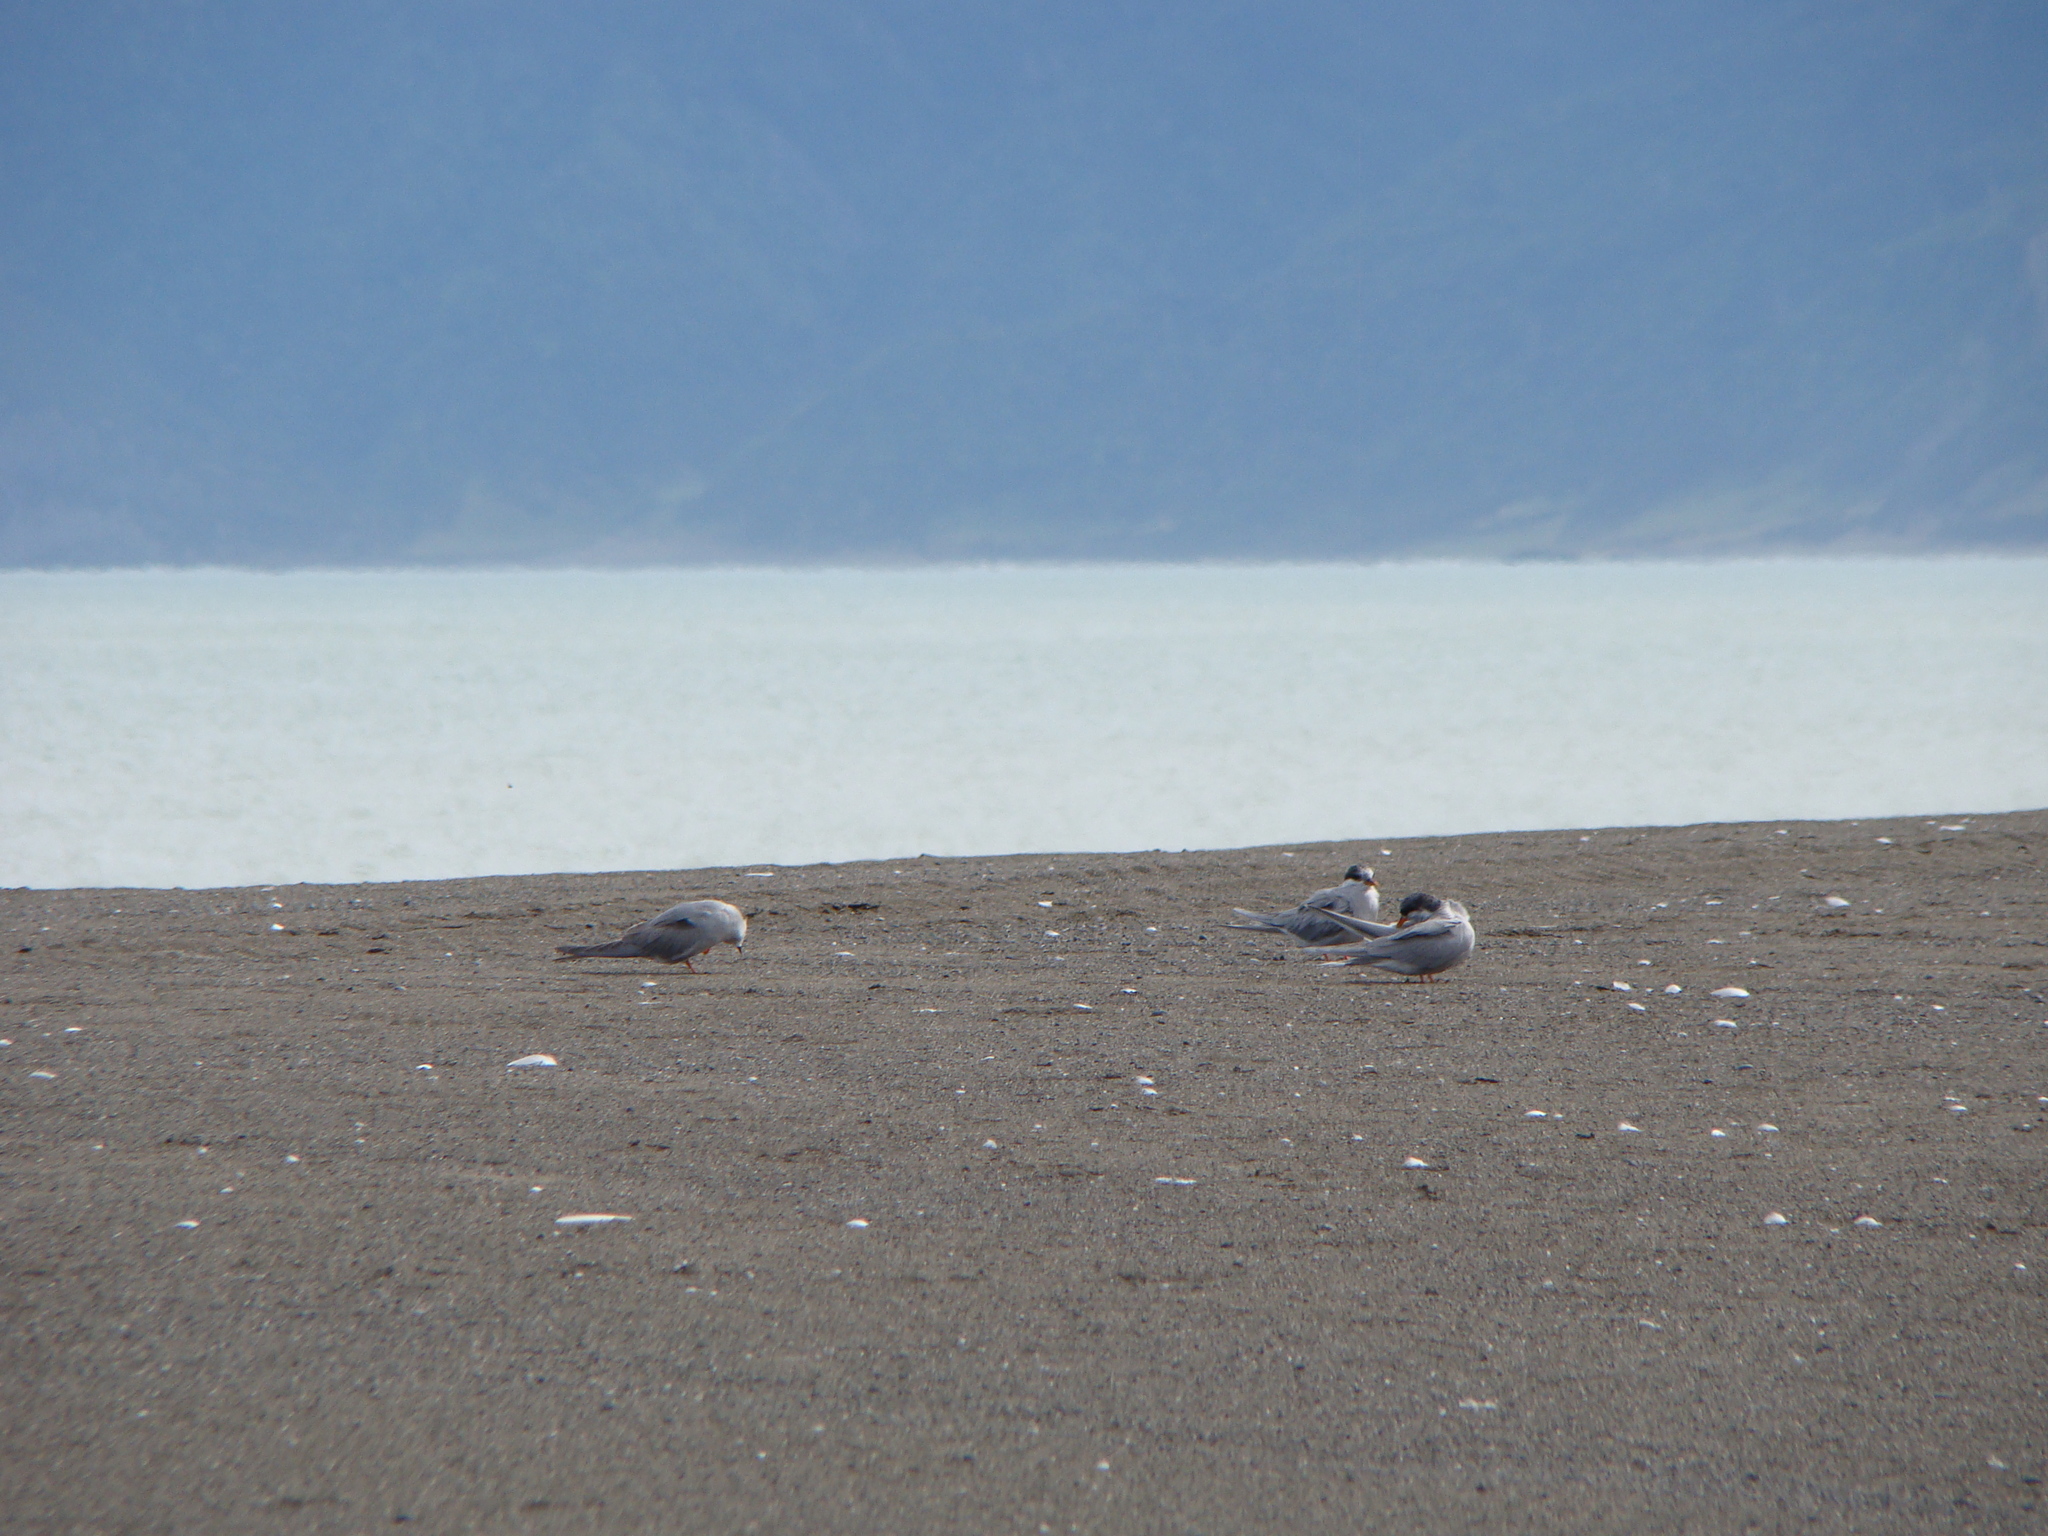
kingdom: Animalia
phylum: Chordata
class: Aves
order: Charadriiformes
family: Laridae
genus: Chlidonias
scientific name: Chlidonias albostriatus
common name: Black-fronted tern
